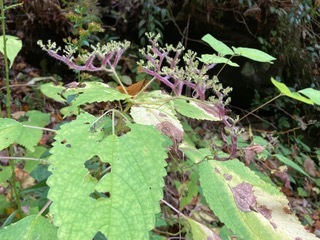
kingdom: Plantae
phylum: Tracheophyta
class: Magnoliopsida
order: Rosales
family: Urticaceae
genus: Laportea
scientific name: Laportea canadensis
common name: Canada nettle
